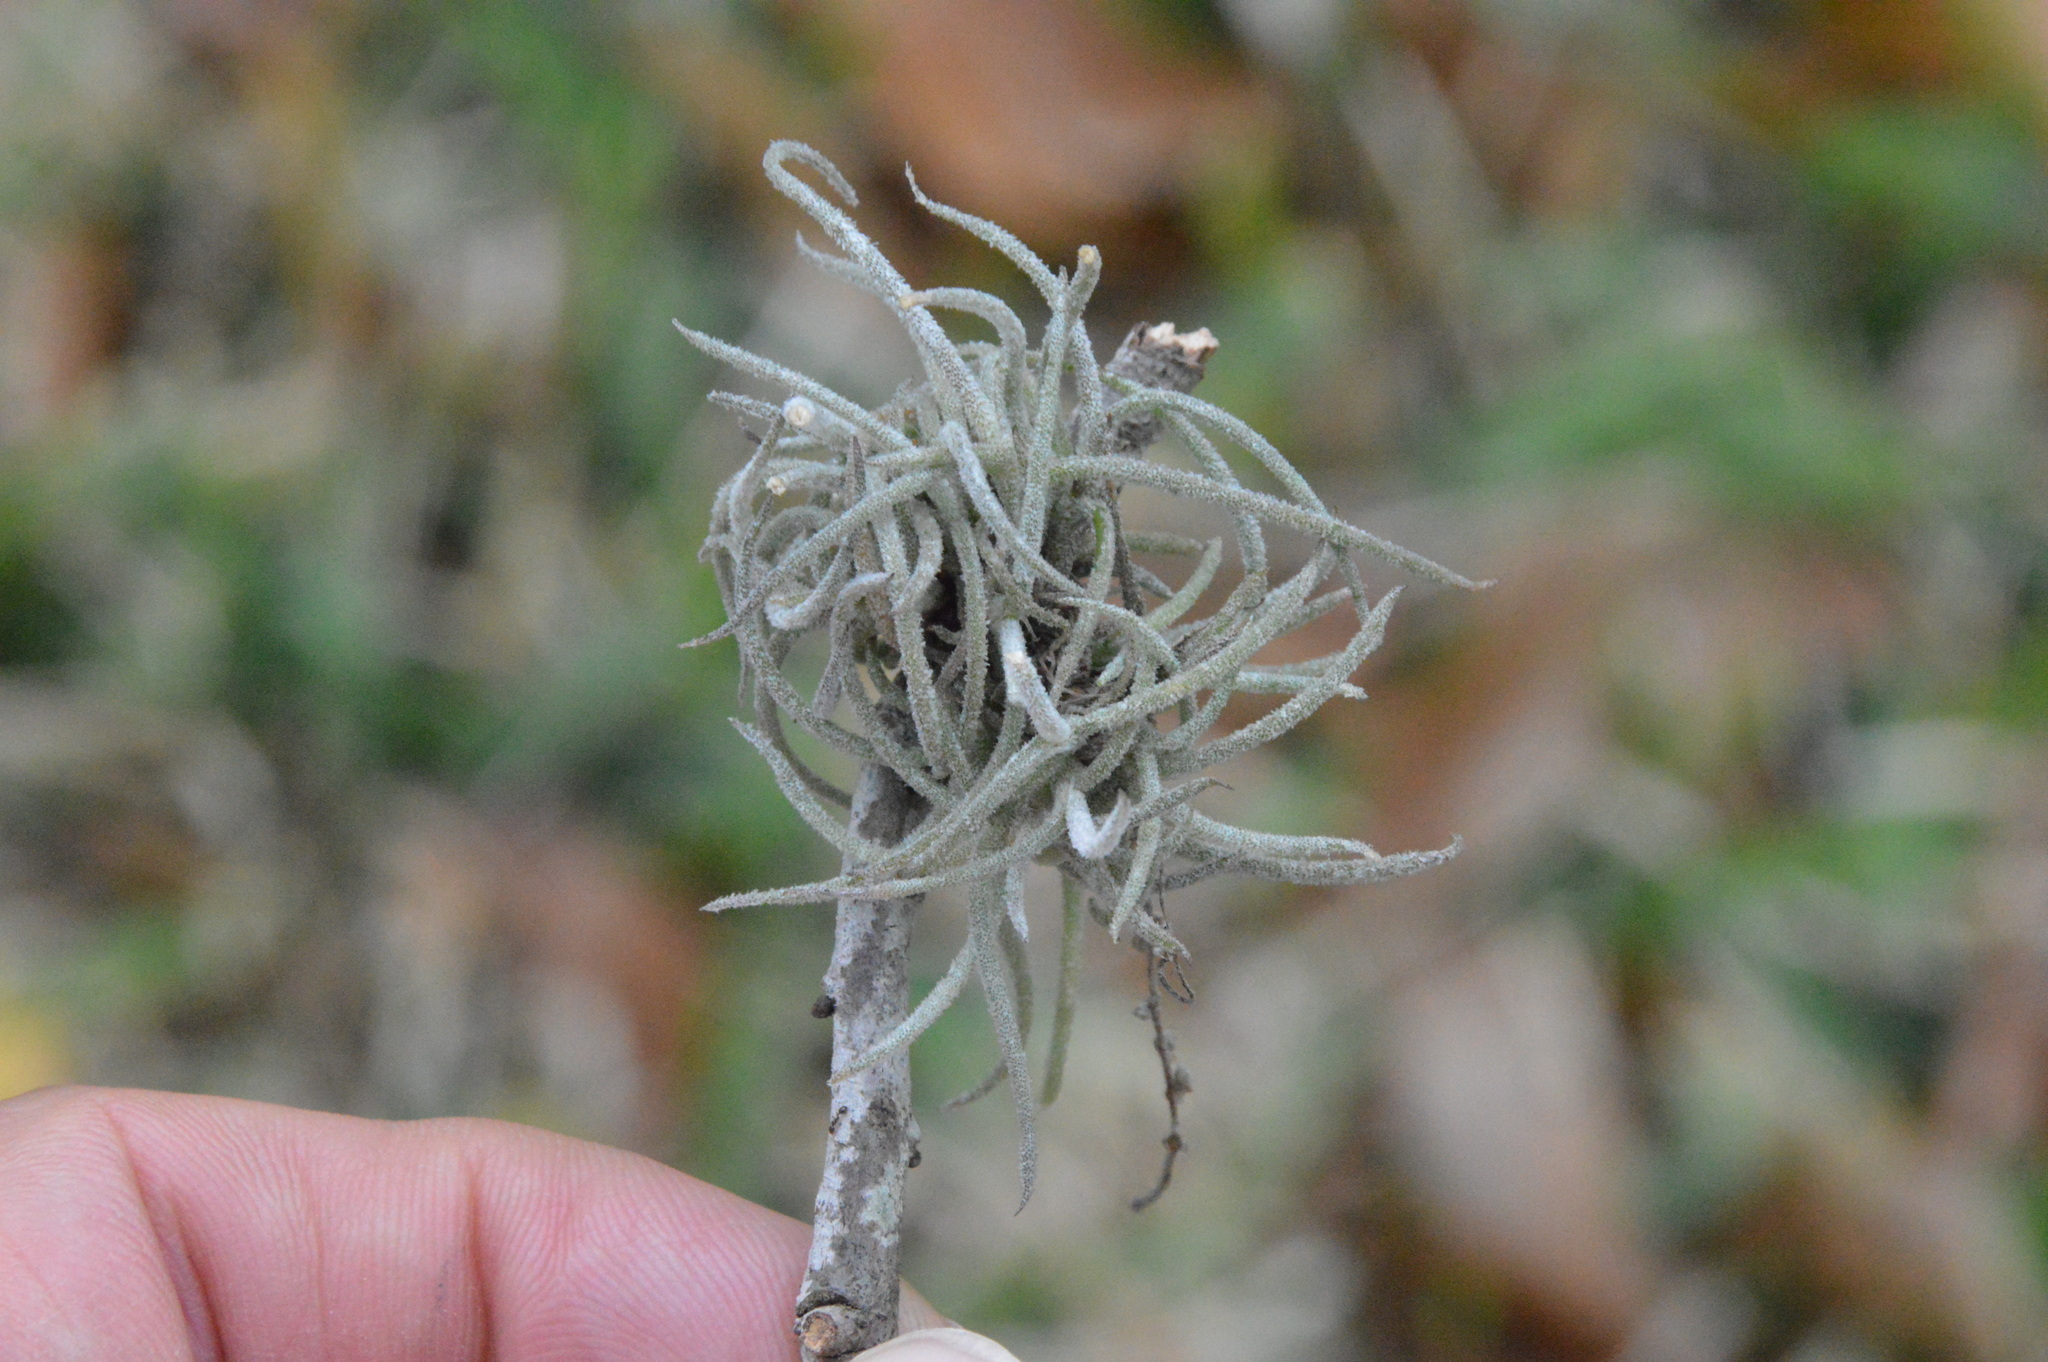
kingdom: Plantae
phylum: Tracheophyta
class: Liliopsida
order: Poales
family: Bromeliaceae
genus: Tillandsia
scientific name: Tillandsia recurvata
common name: Small ballmoss
